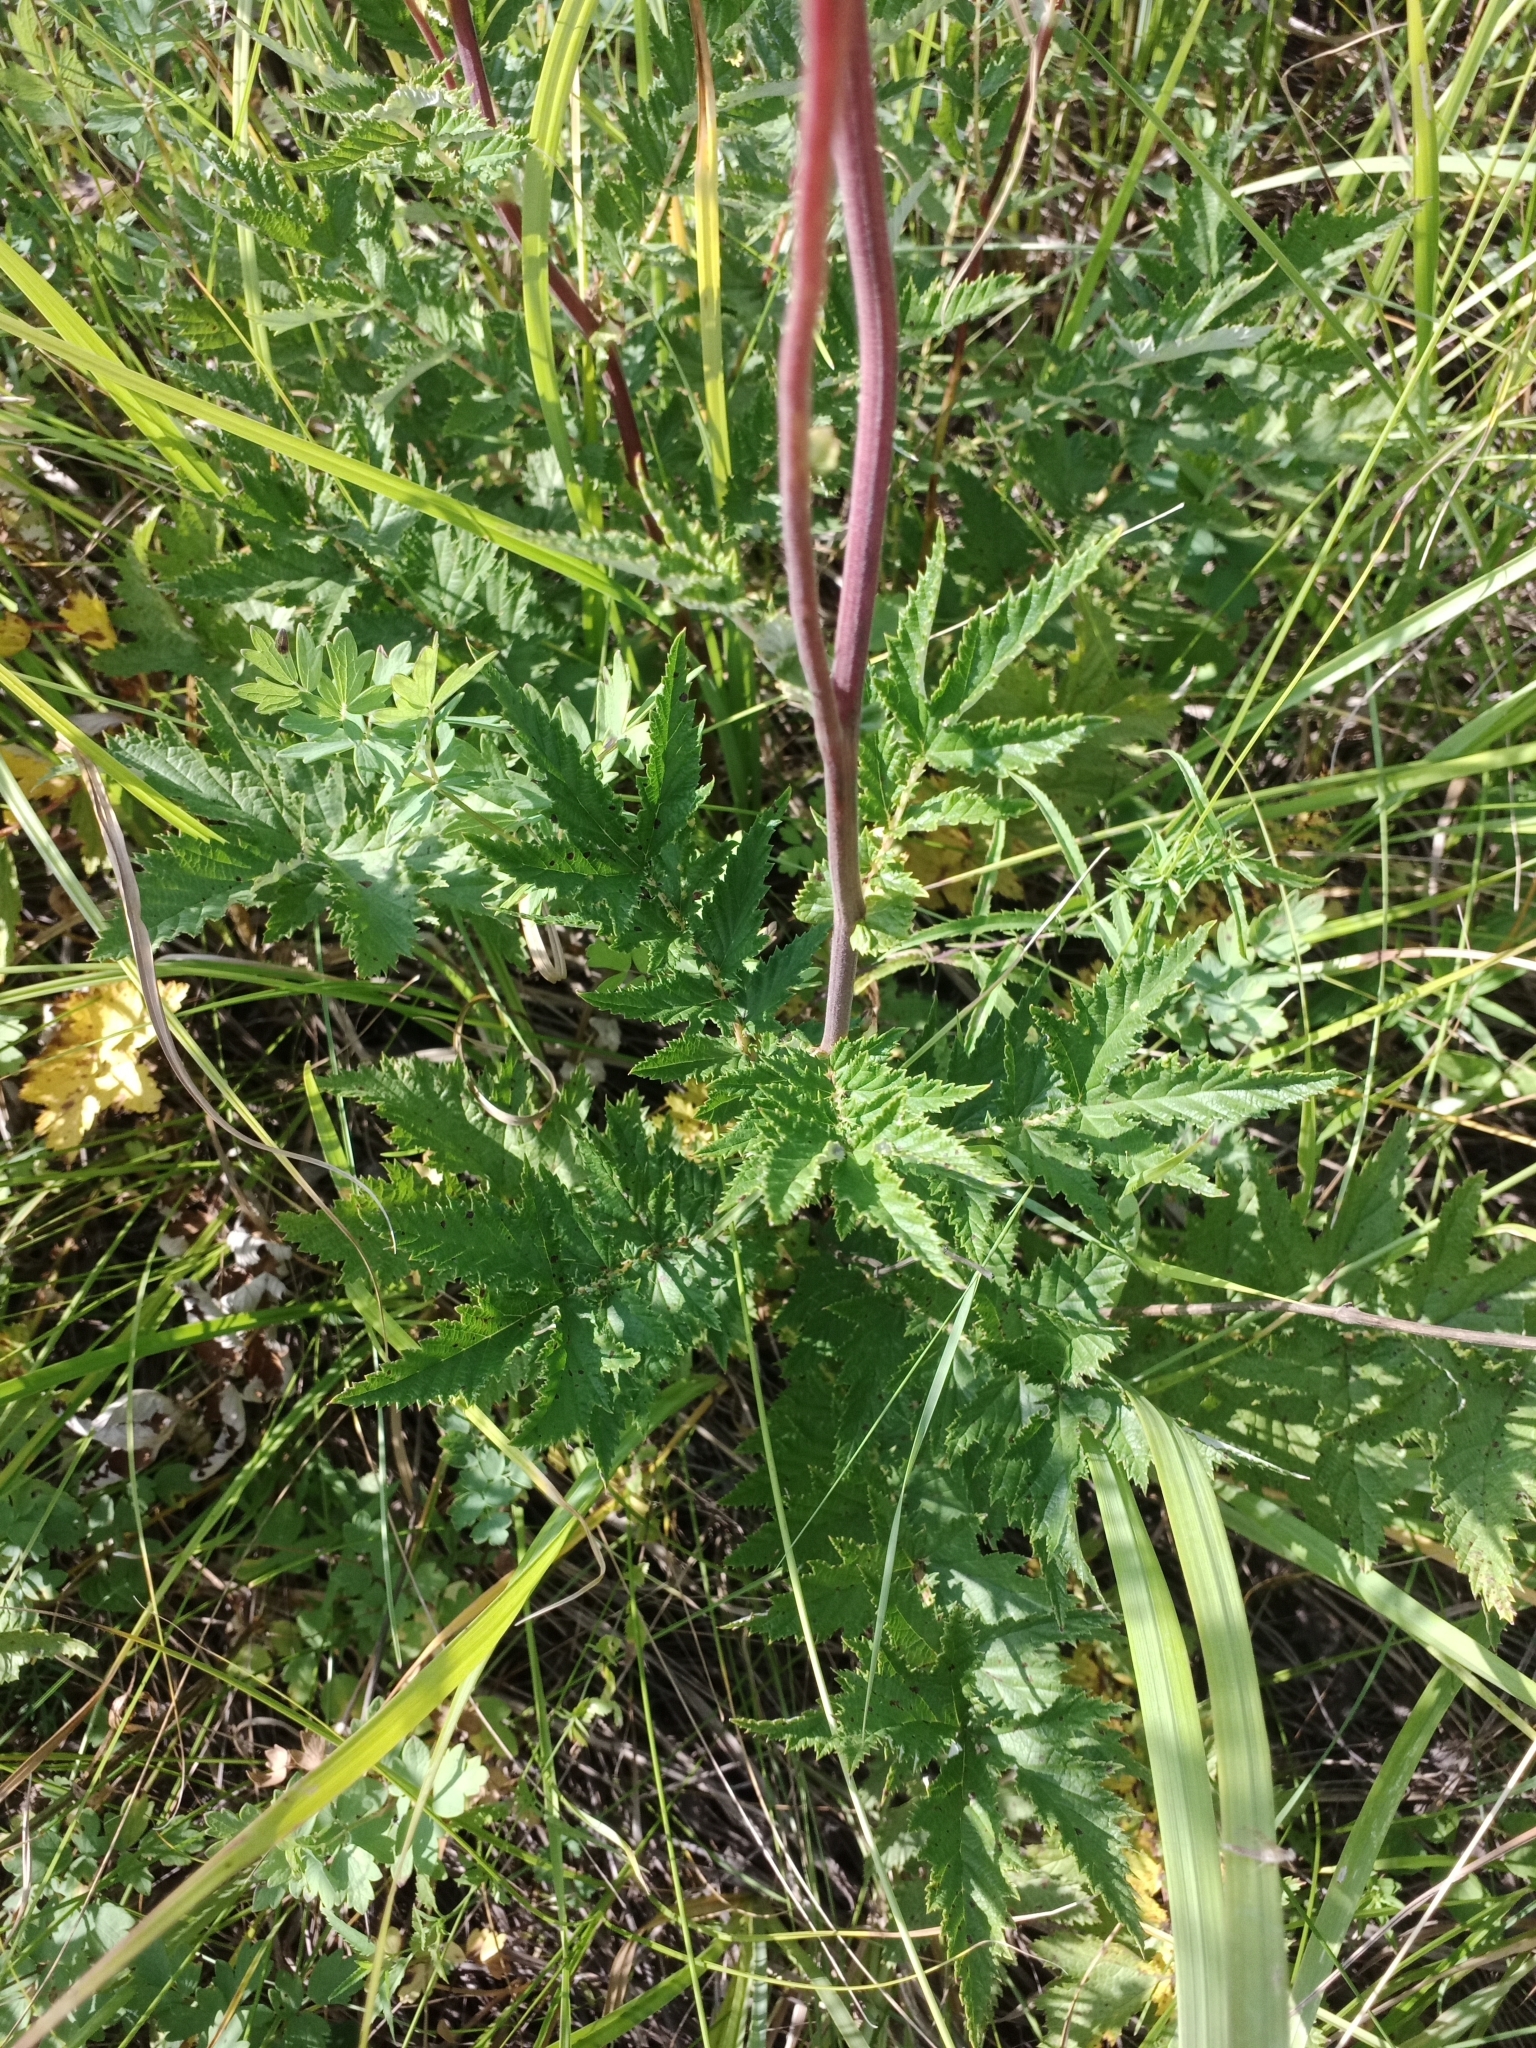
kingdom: Plantae
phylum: Tracheophyta
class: Magnoliopsida
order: Rosales
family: Rosaceae
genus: Filipendula
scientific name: Filipendula ulmaria
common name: Meadowsweet
